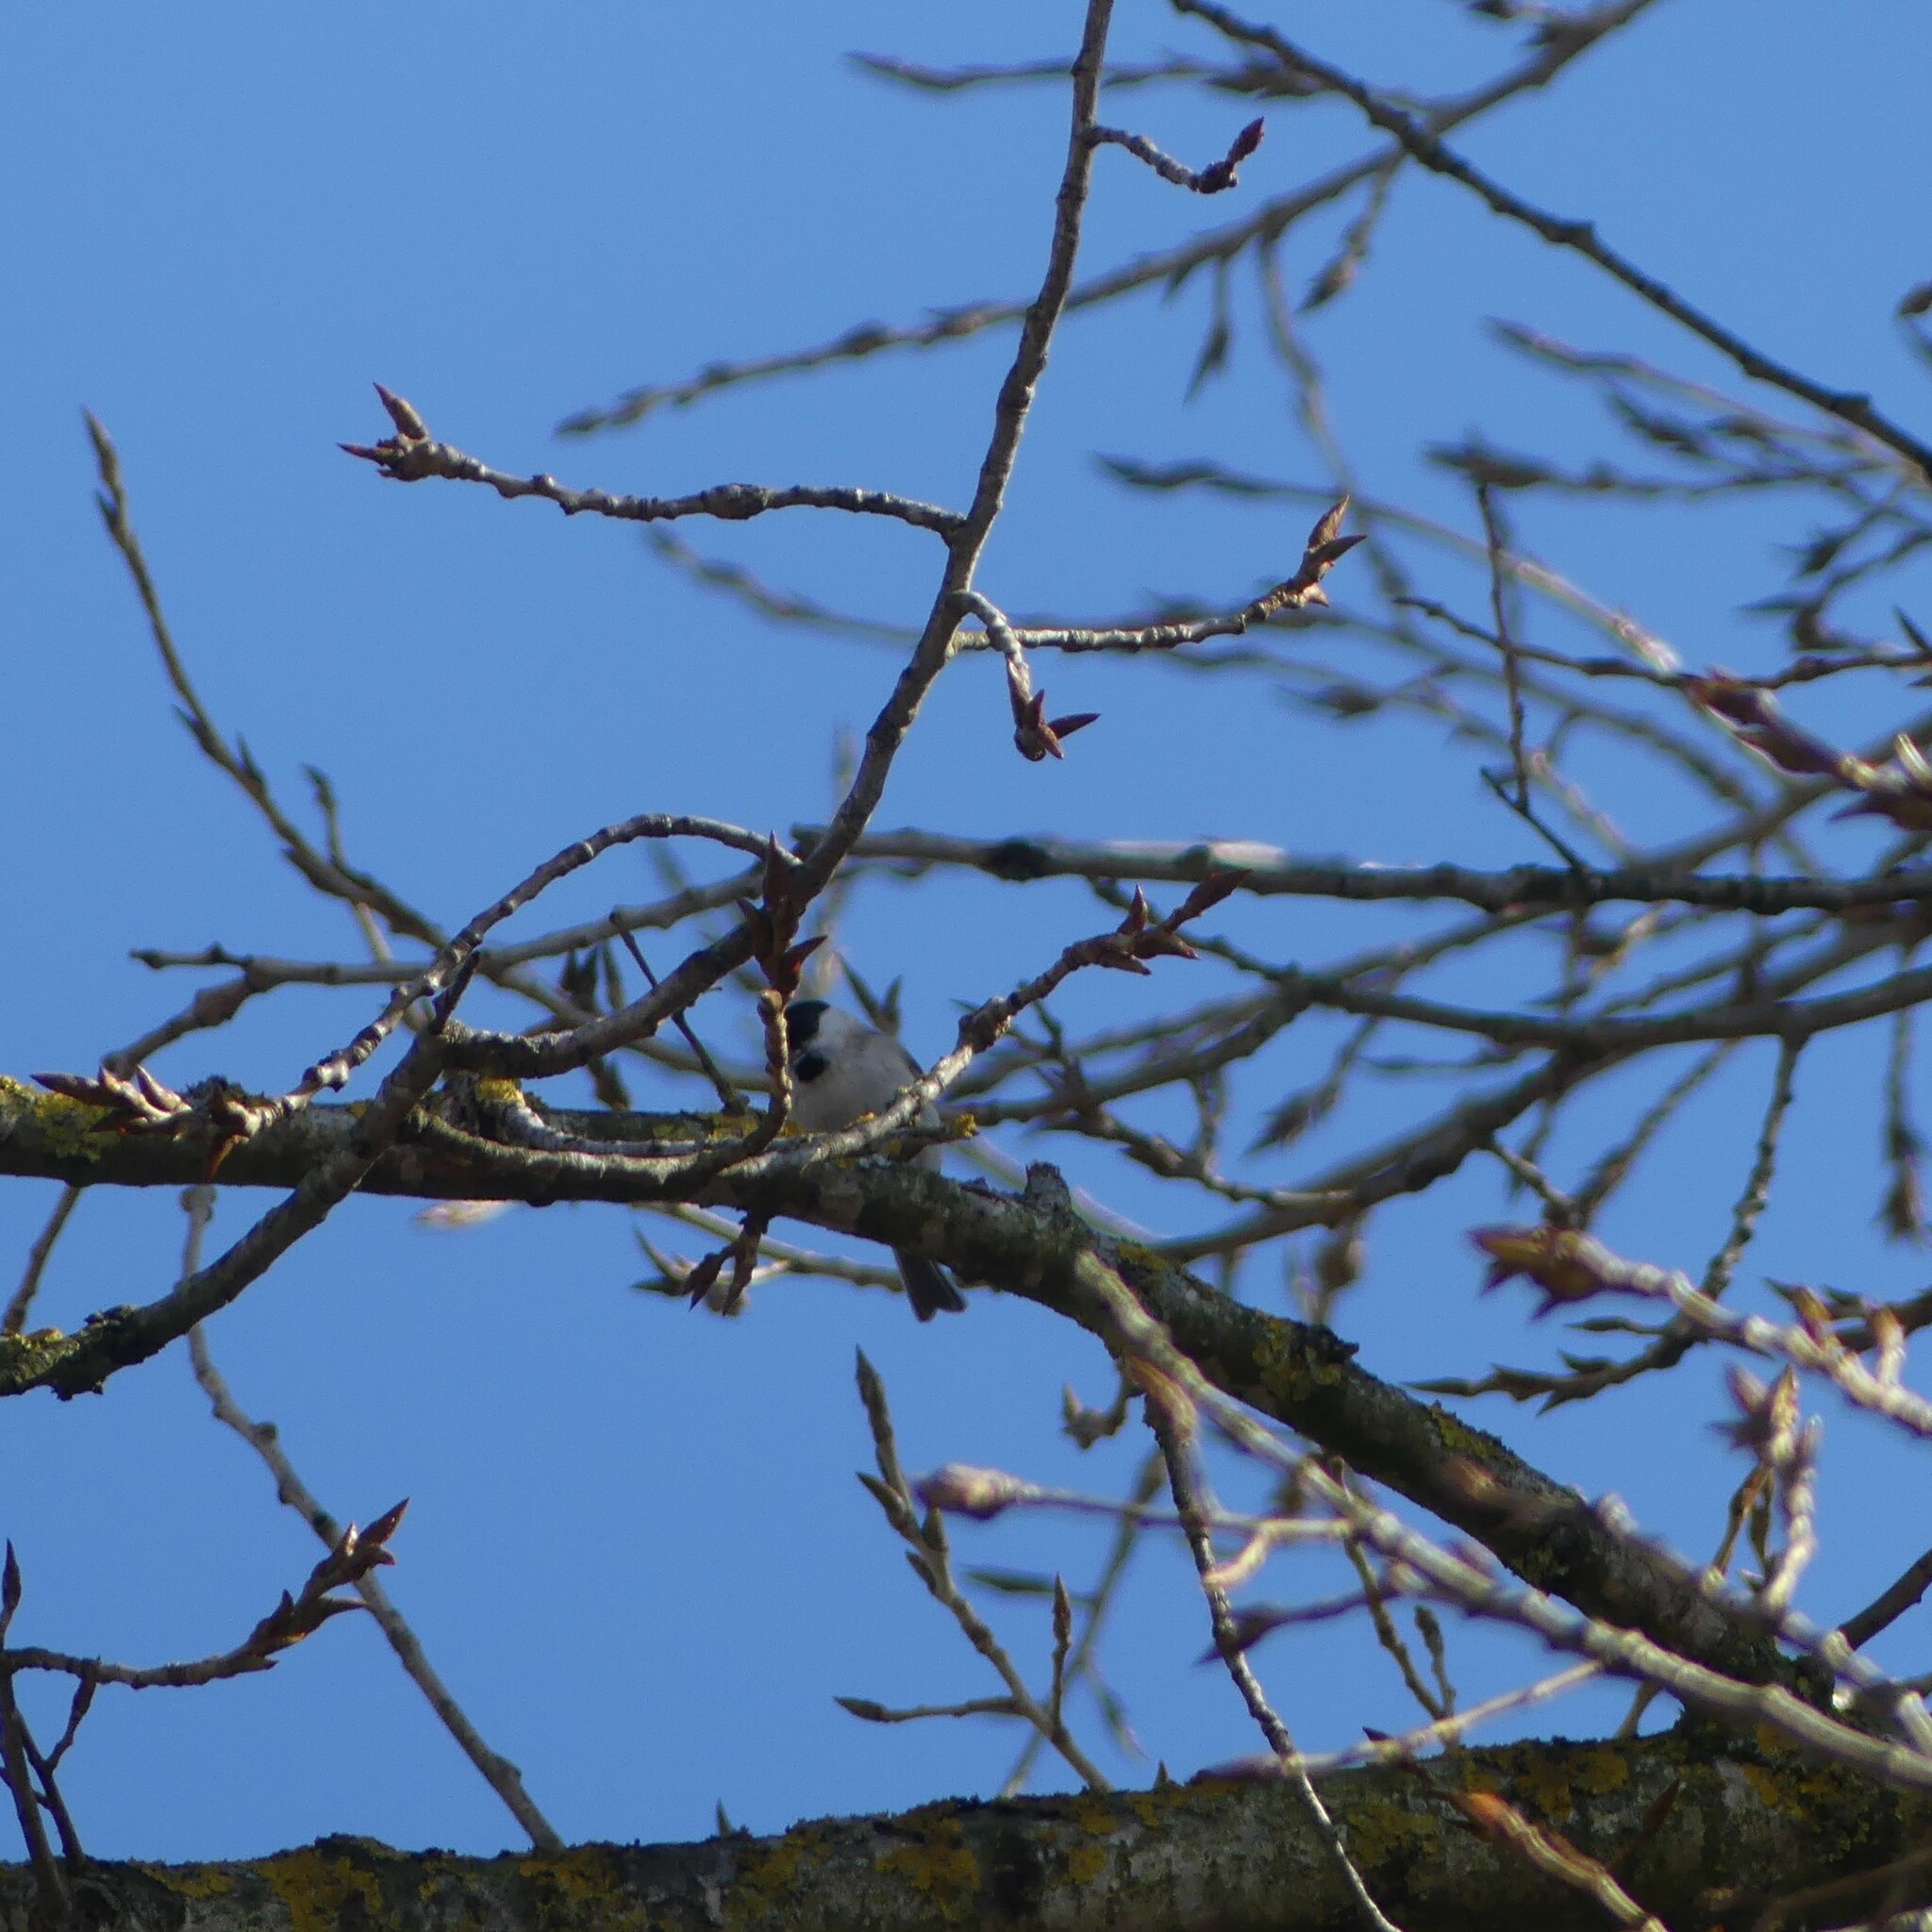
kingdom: Animalia
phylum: Chordata
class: Aves
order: Passeriformes
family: Paridae
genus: Poecile
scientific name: Poecile palustris
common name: Marsh tit
